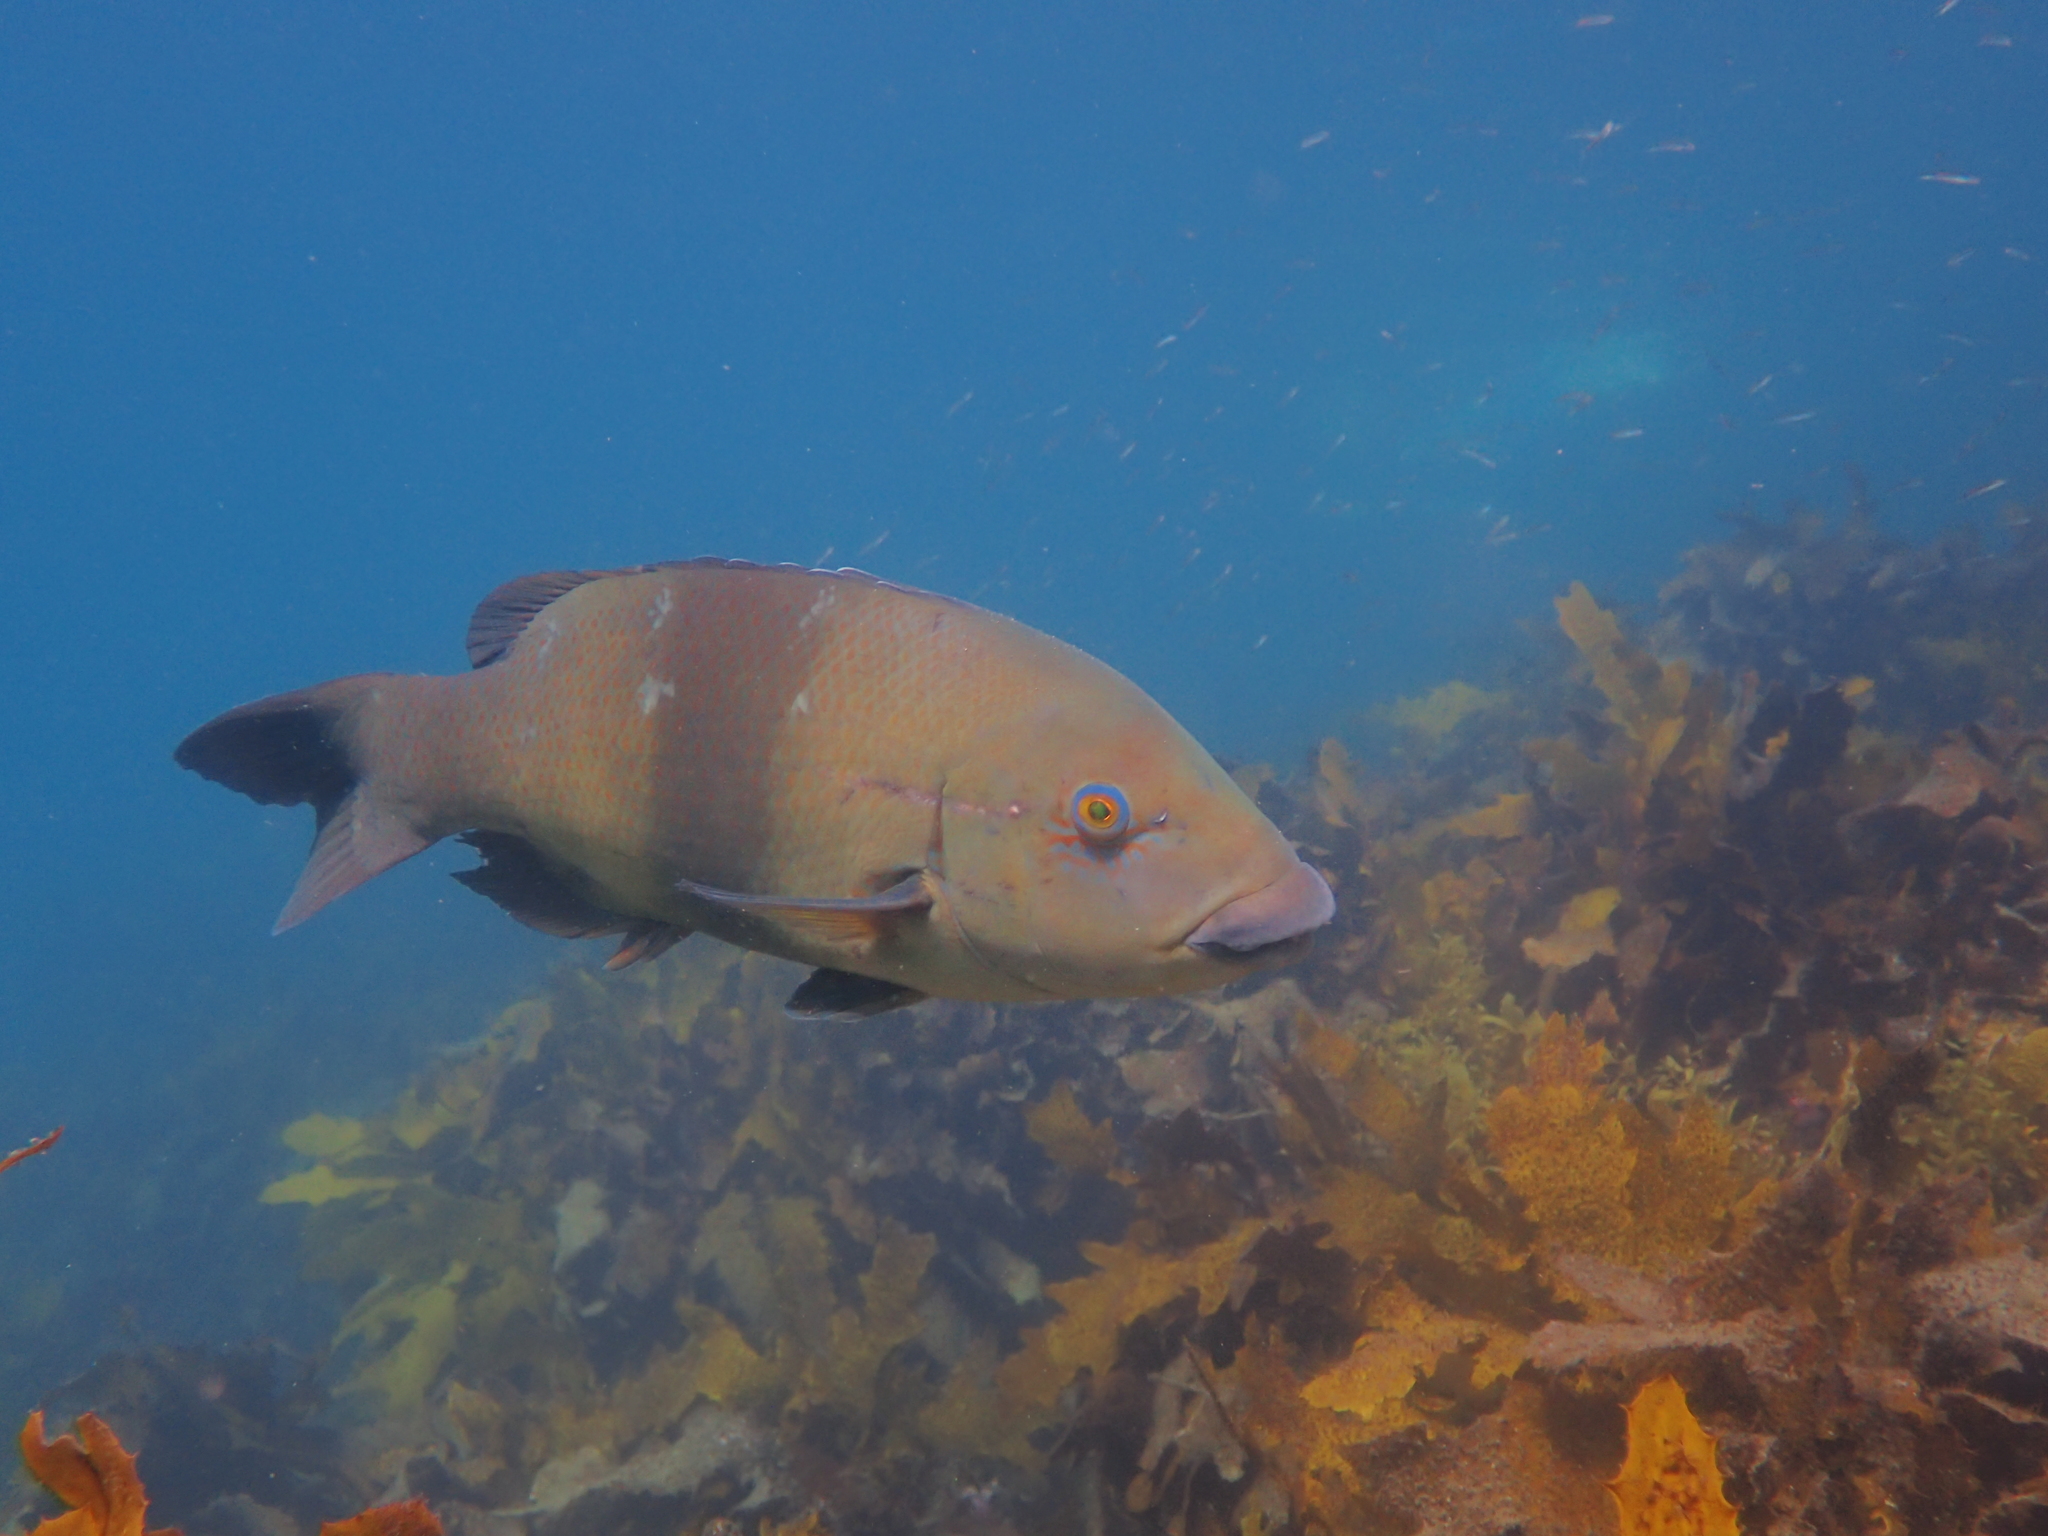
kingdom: Animalia
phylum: Chordata
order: Perciformes
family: Labridae
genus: Achoerodus
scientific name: Achoerodus viridis
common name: Brown groper
